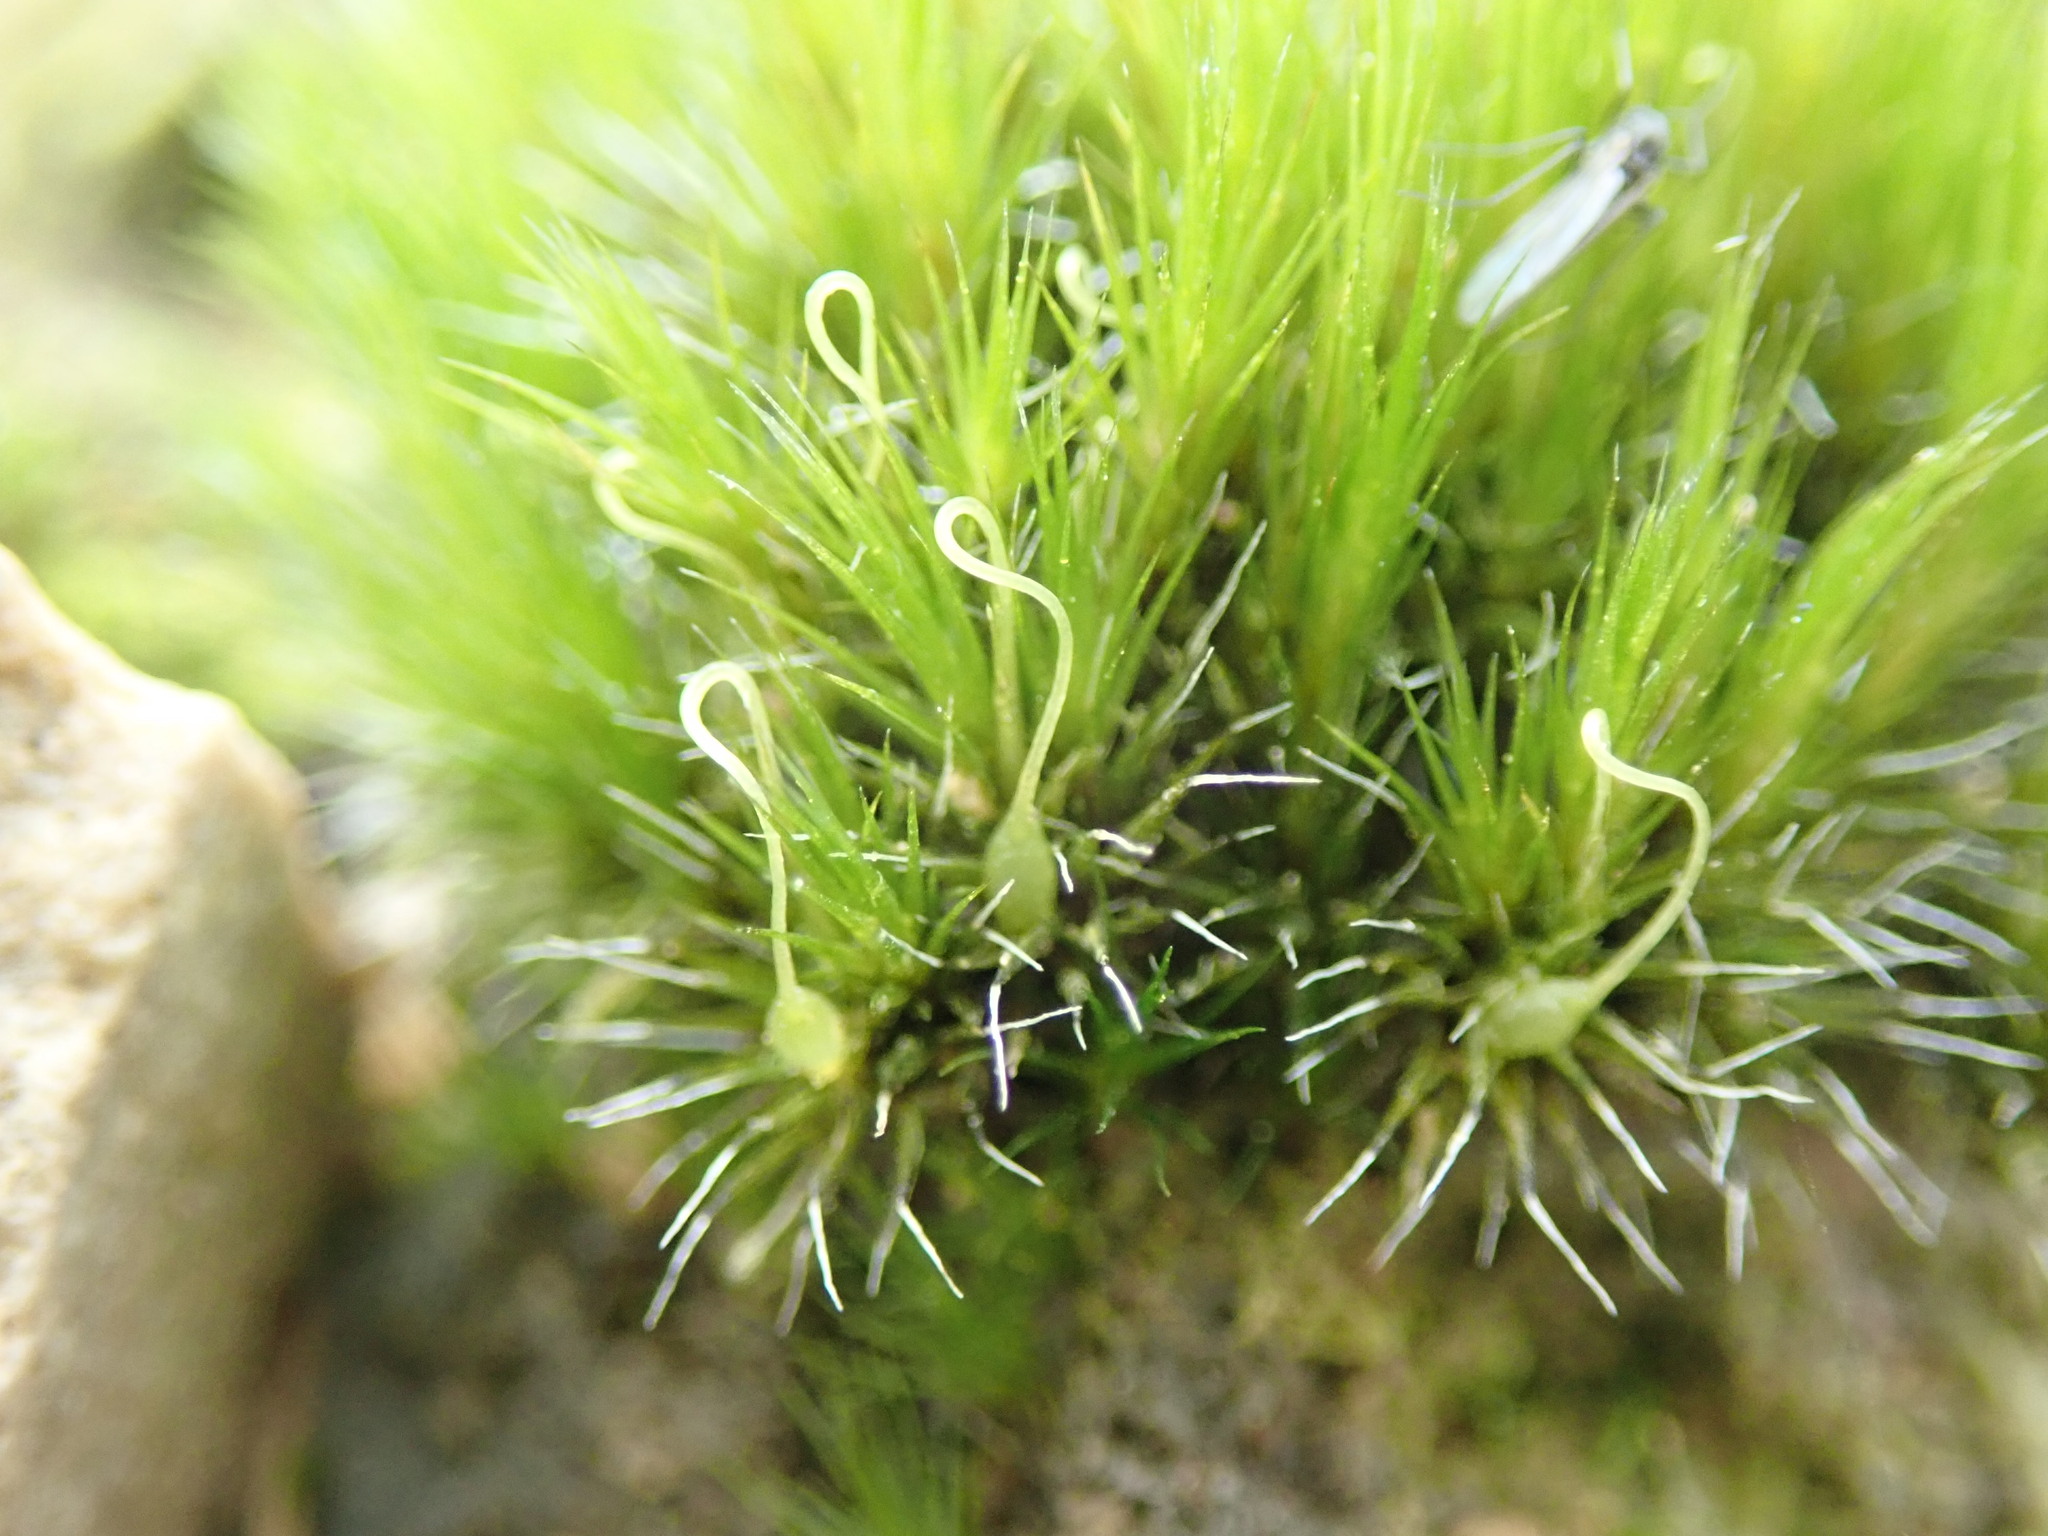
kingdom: Plantae
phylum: Bryophyta
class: Bryopsida
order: Dicranales
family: Leucobryaceae
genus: Campylopus
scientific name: Campylopus introflexus
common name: Heath star moss
